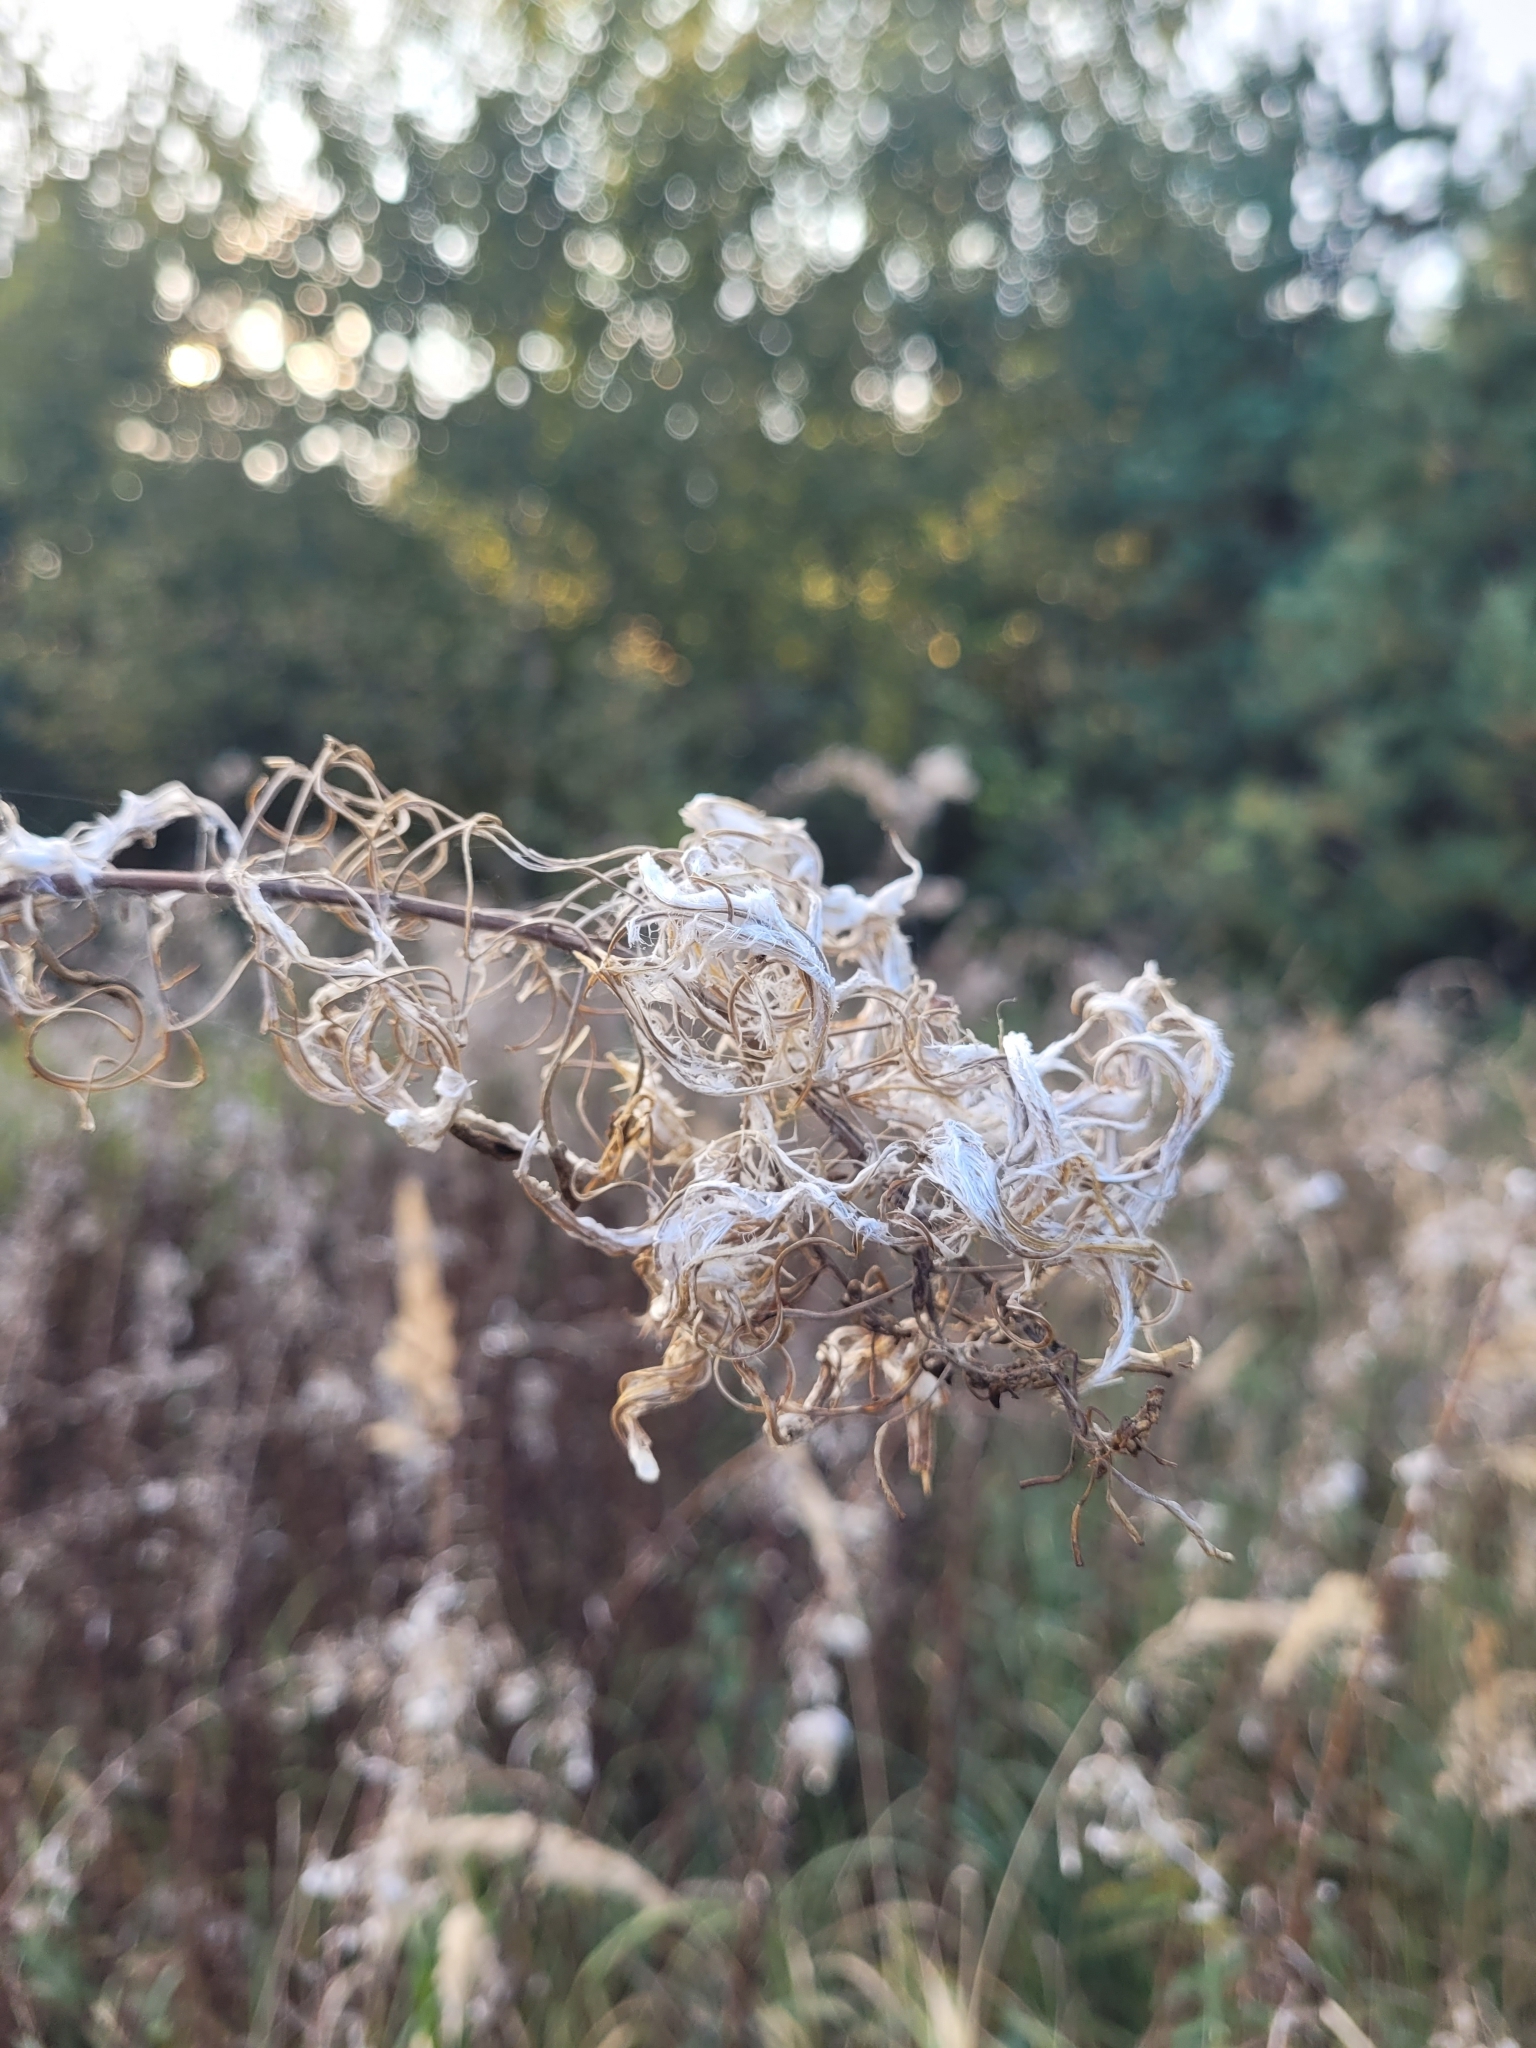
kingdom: Plantae
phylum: Tracheophyta
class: Magnoliopsida
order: Myrtales
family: Onagraceae
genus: Chamaenerion
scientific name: Chamaenerion angustifolium
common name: Fireweed
